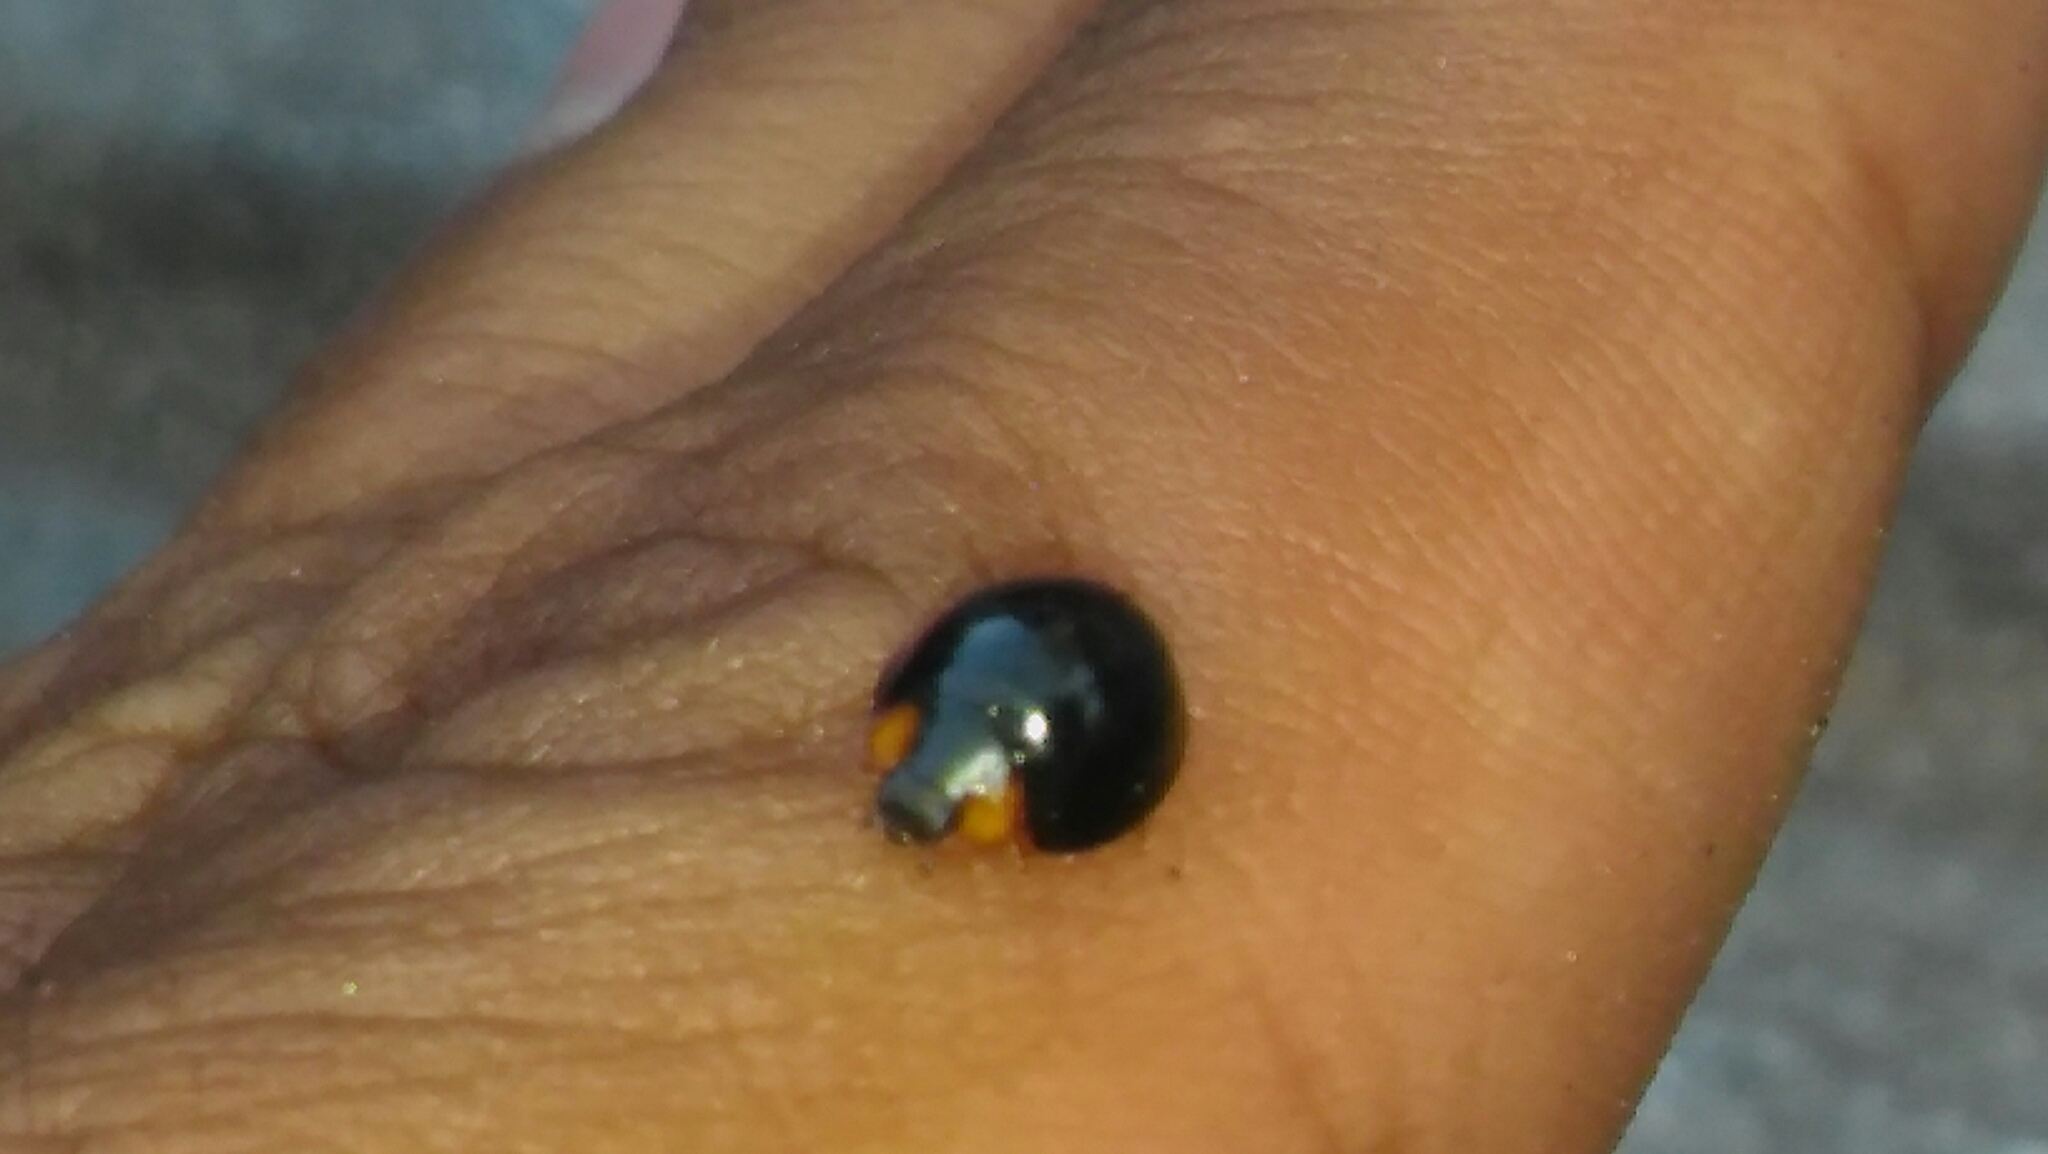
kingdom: Animalia
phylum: Arthropoda
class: Insecta
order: Coleoptera
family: Coccinellidae
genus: Curinus
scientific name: Curinus coeruleus
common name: Ladybird beetle
